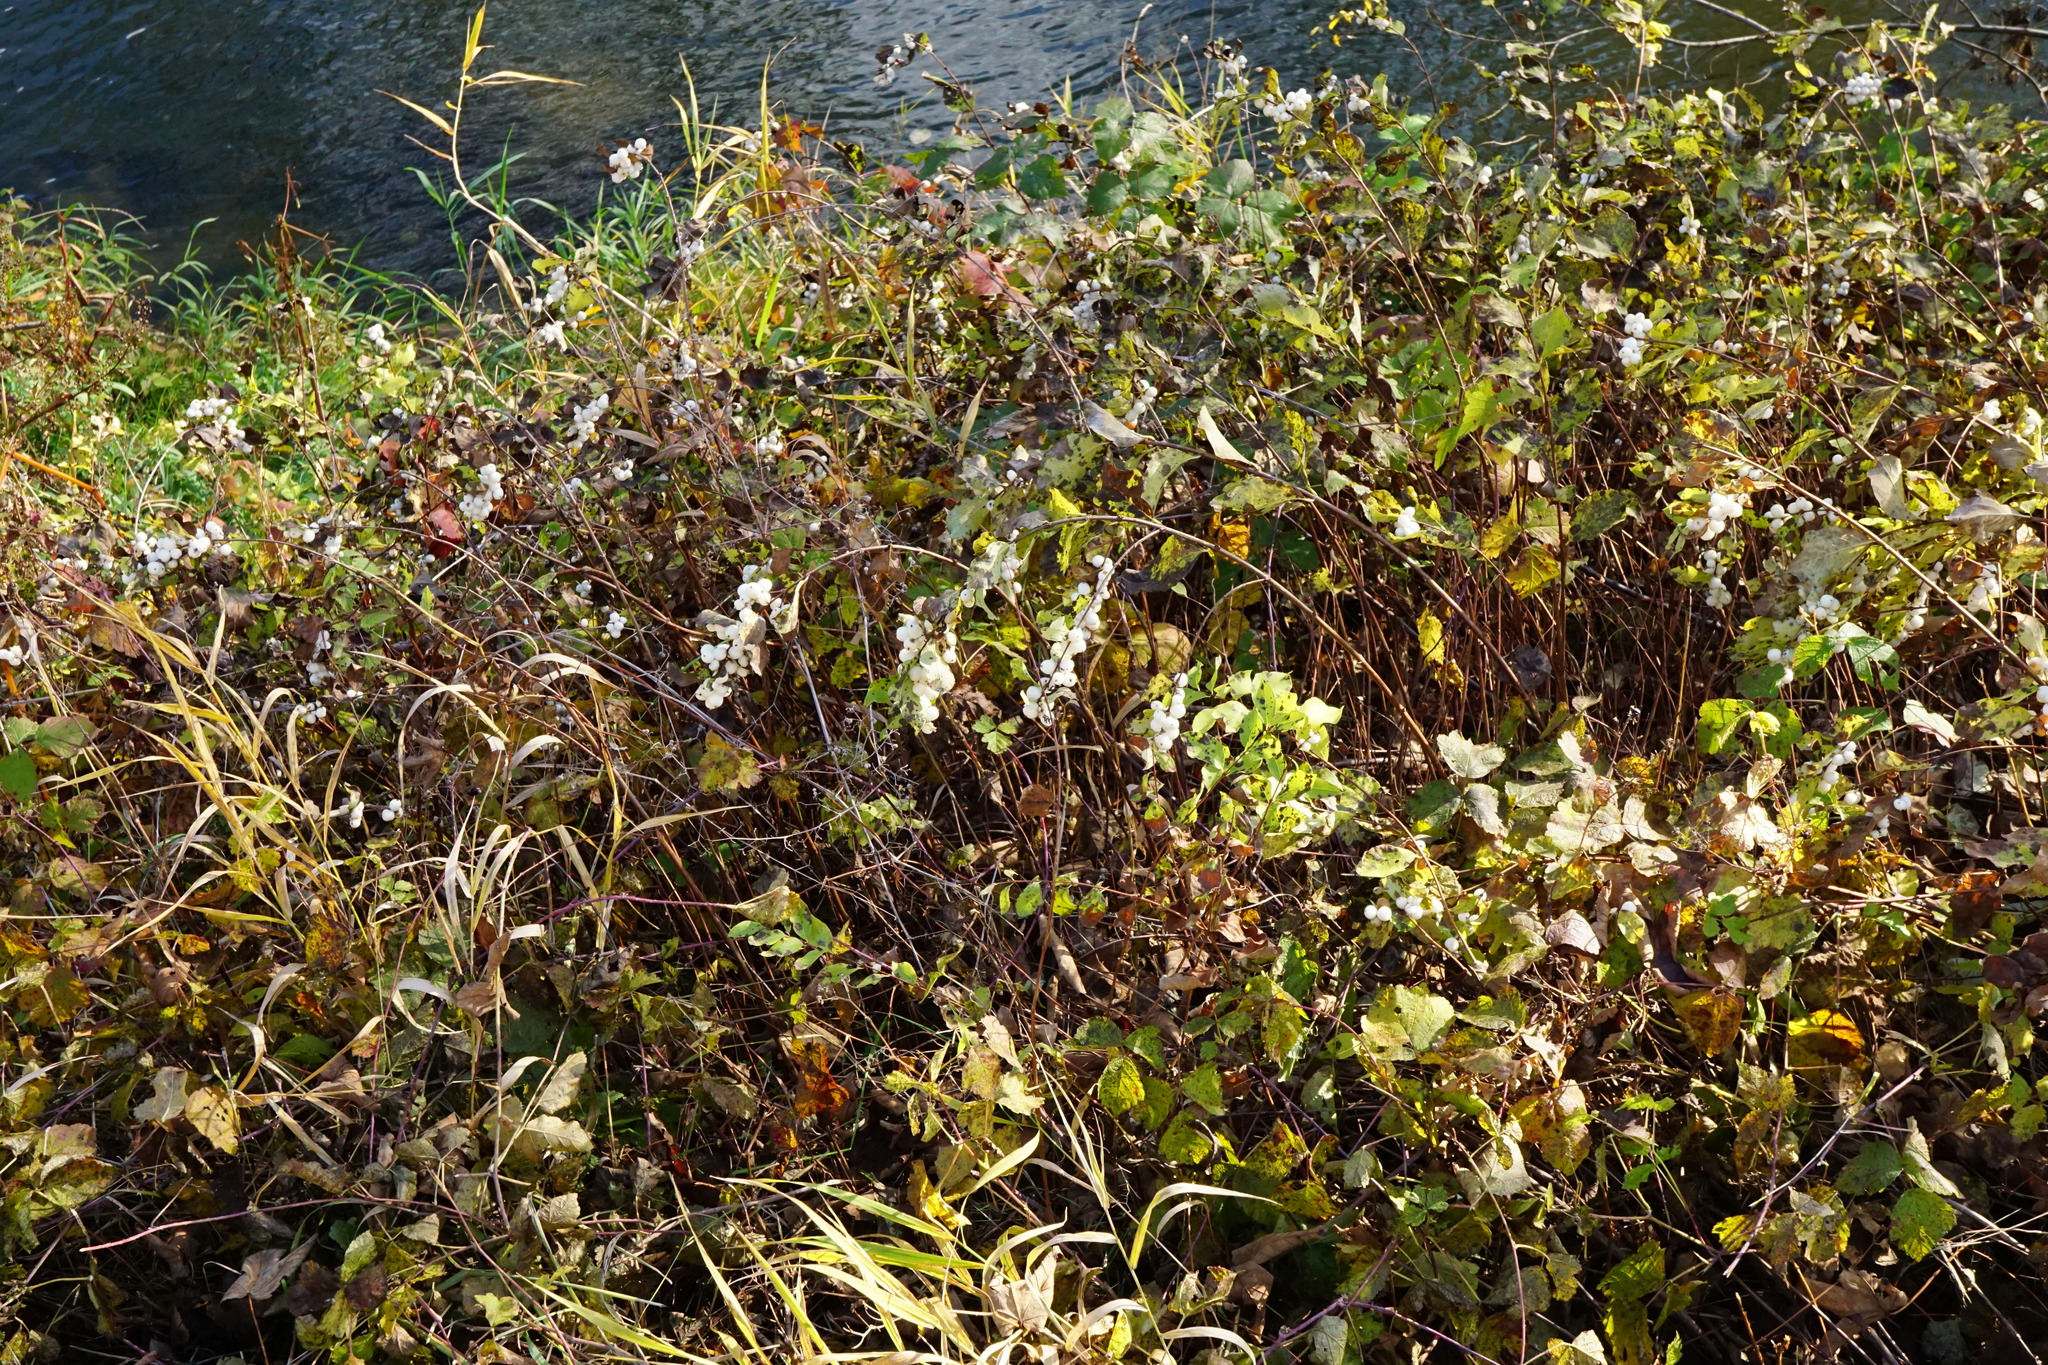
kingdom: Plantae
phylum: Tracheophyta
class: Magnoliopsida
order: Dipsacales
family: Caprifoliaceae
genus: Symphoricarpos
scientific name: Symphoricarpos albus
